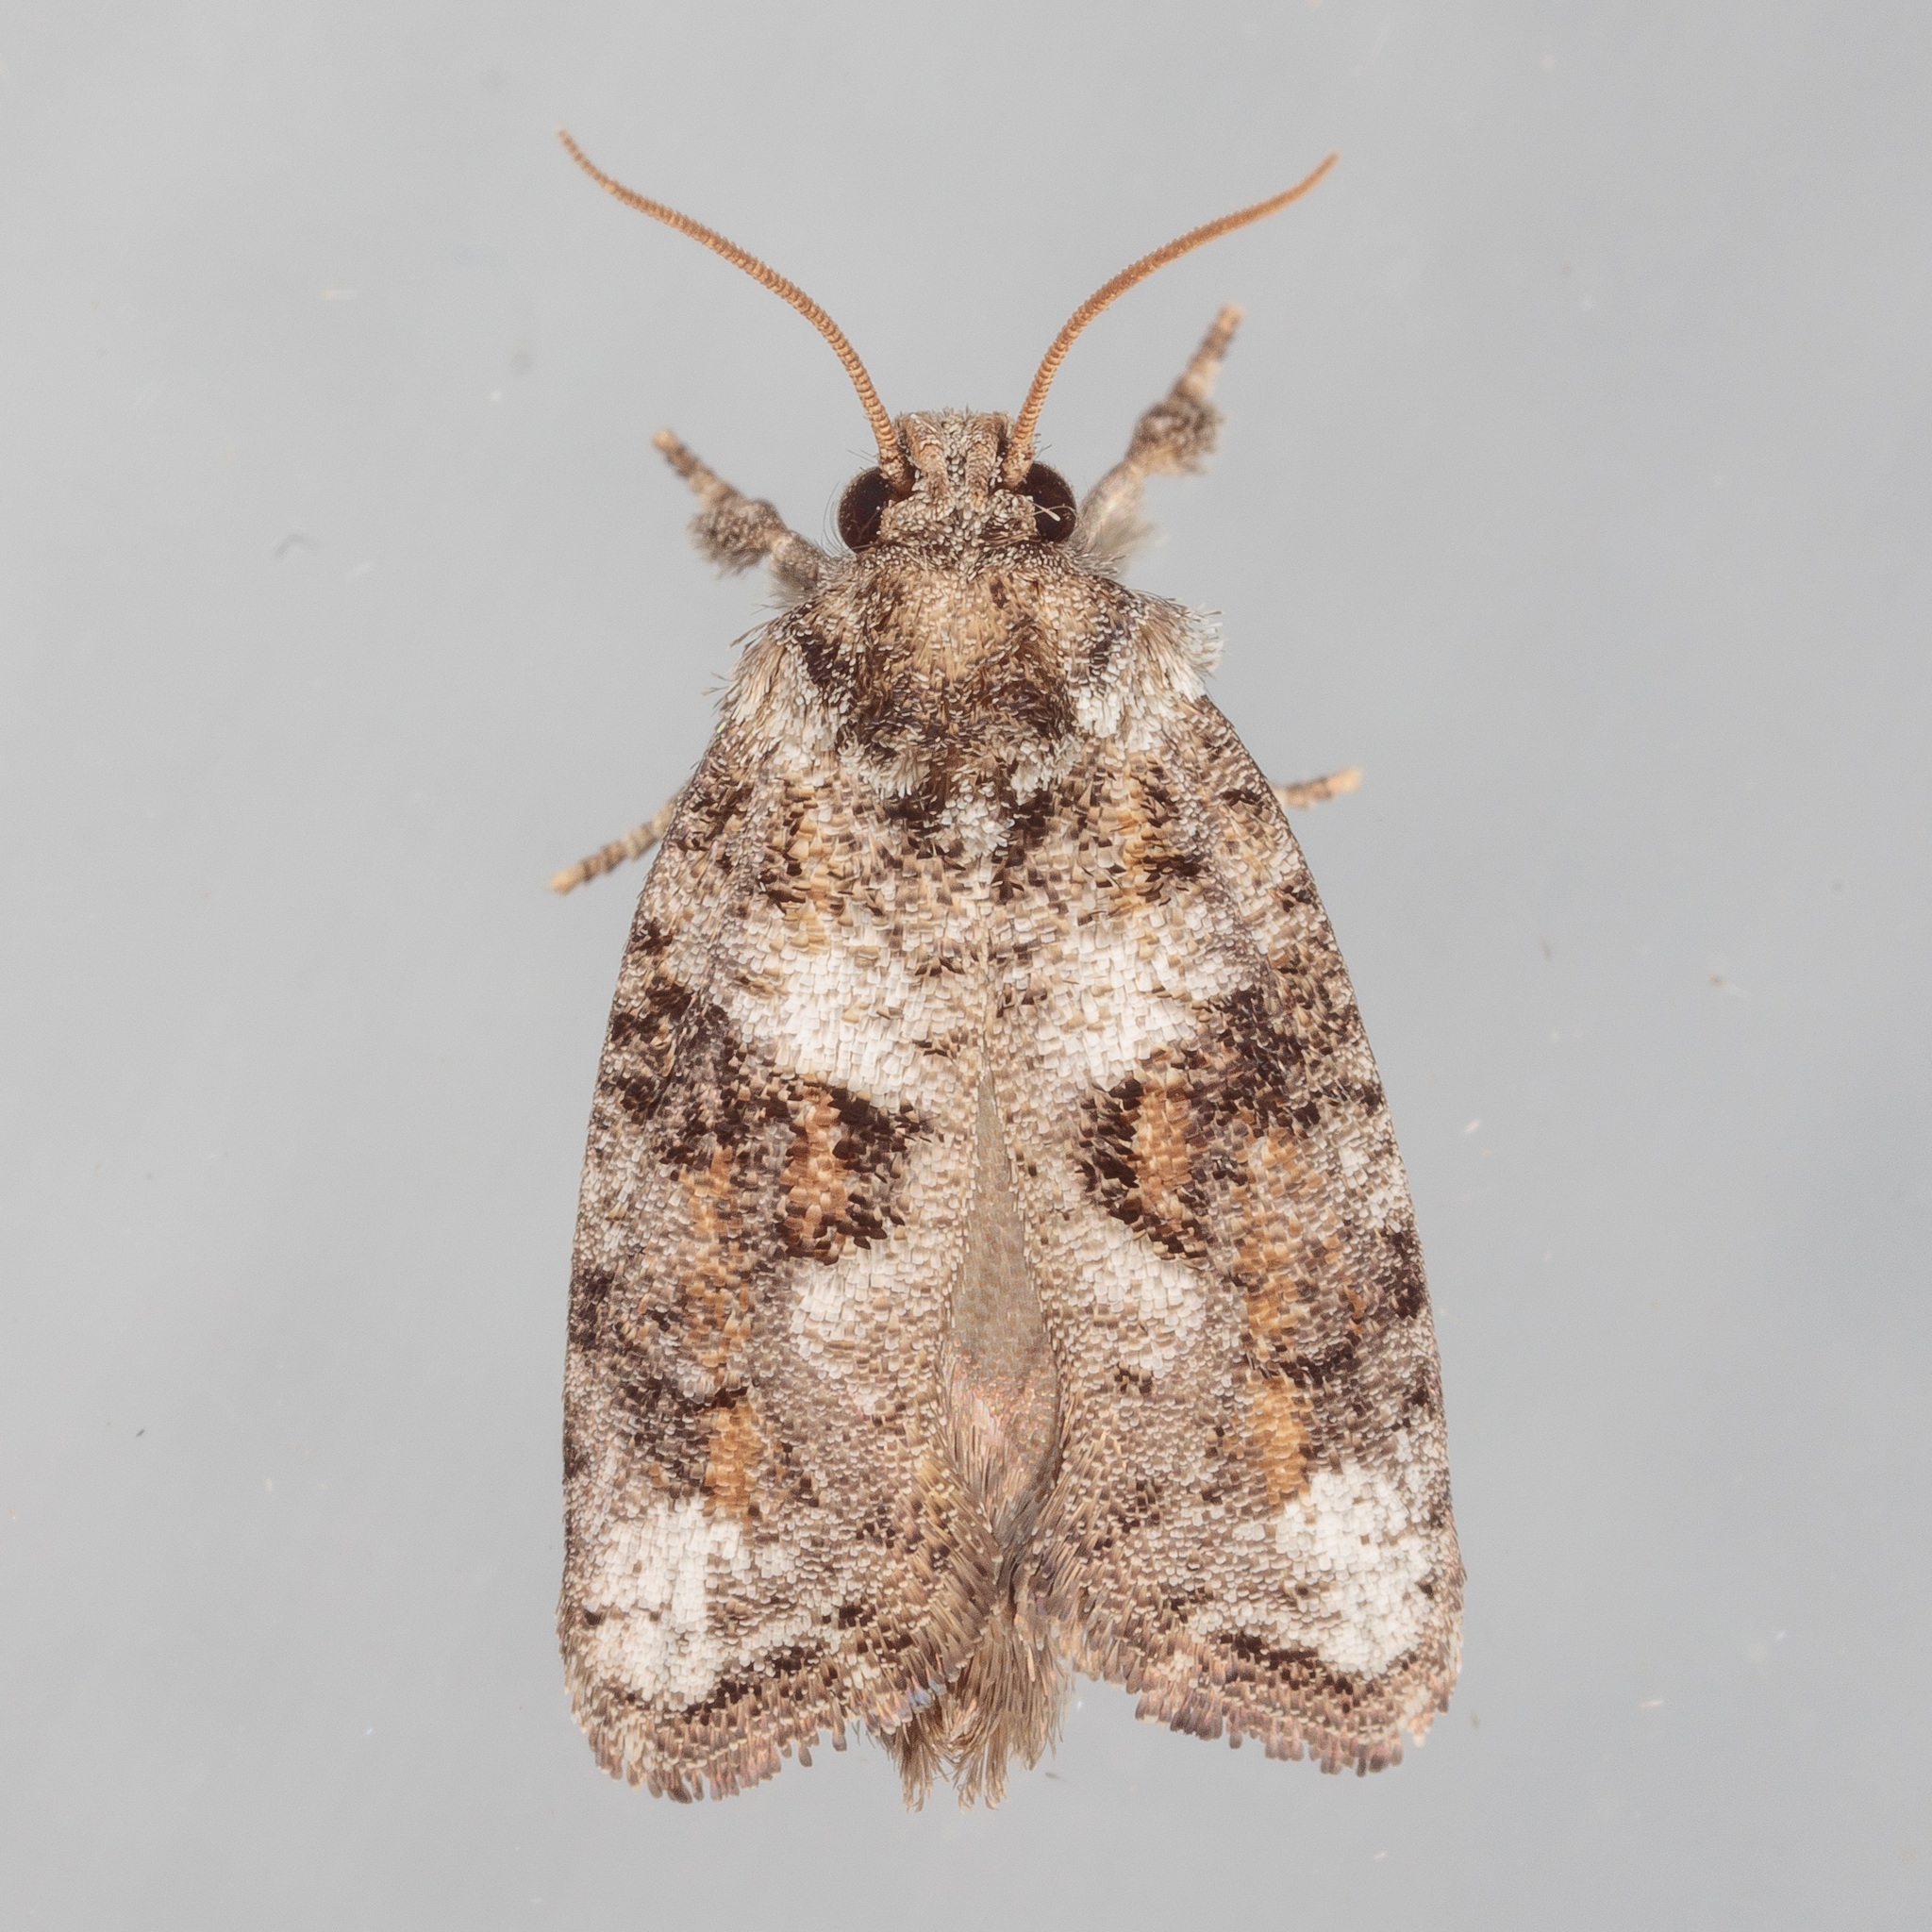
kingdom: Animalia
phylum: Arthropoda
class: Insecta
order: Lepidoptera
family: Tineidae
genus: Acrolophus
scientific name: Acrolophus piger
